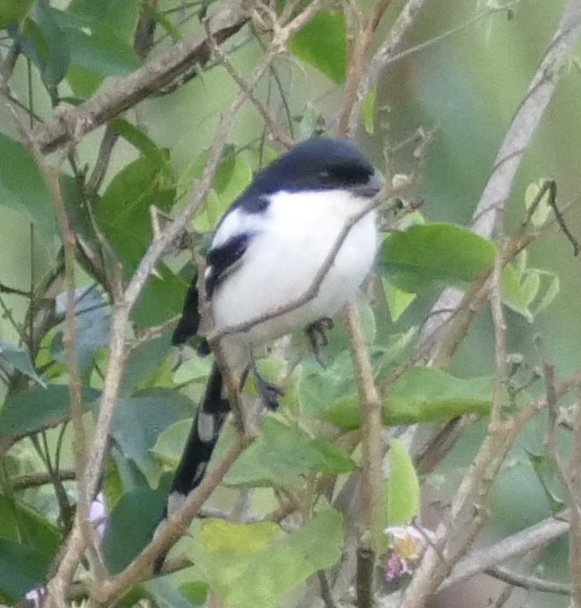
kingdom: Animalia
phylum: Chordata
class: Aves
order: Passeriformes
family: Laniidae
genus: Lanius
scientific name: Lanius humeralis
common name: Northern fiscal
